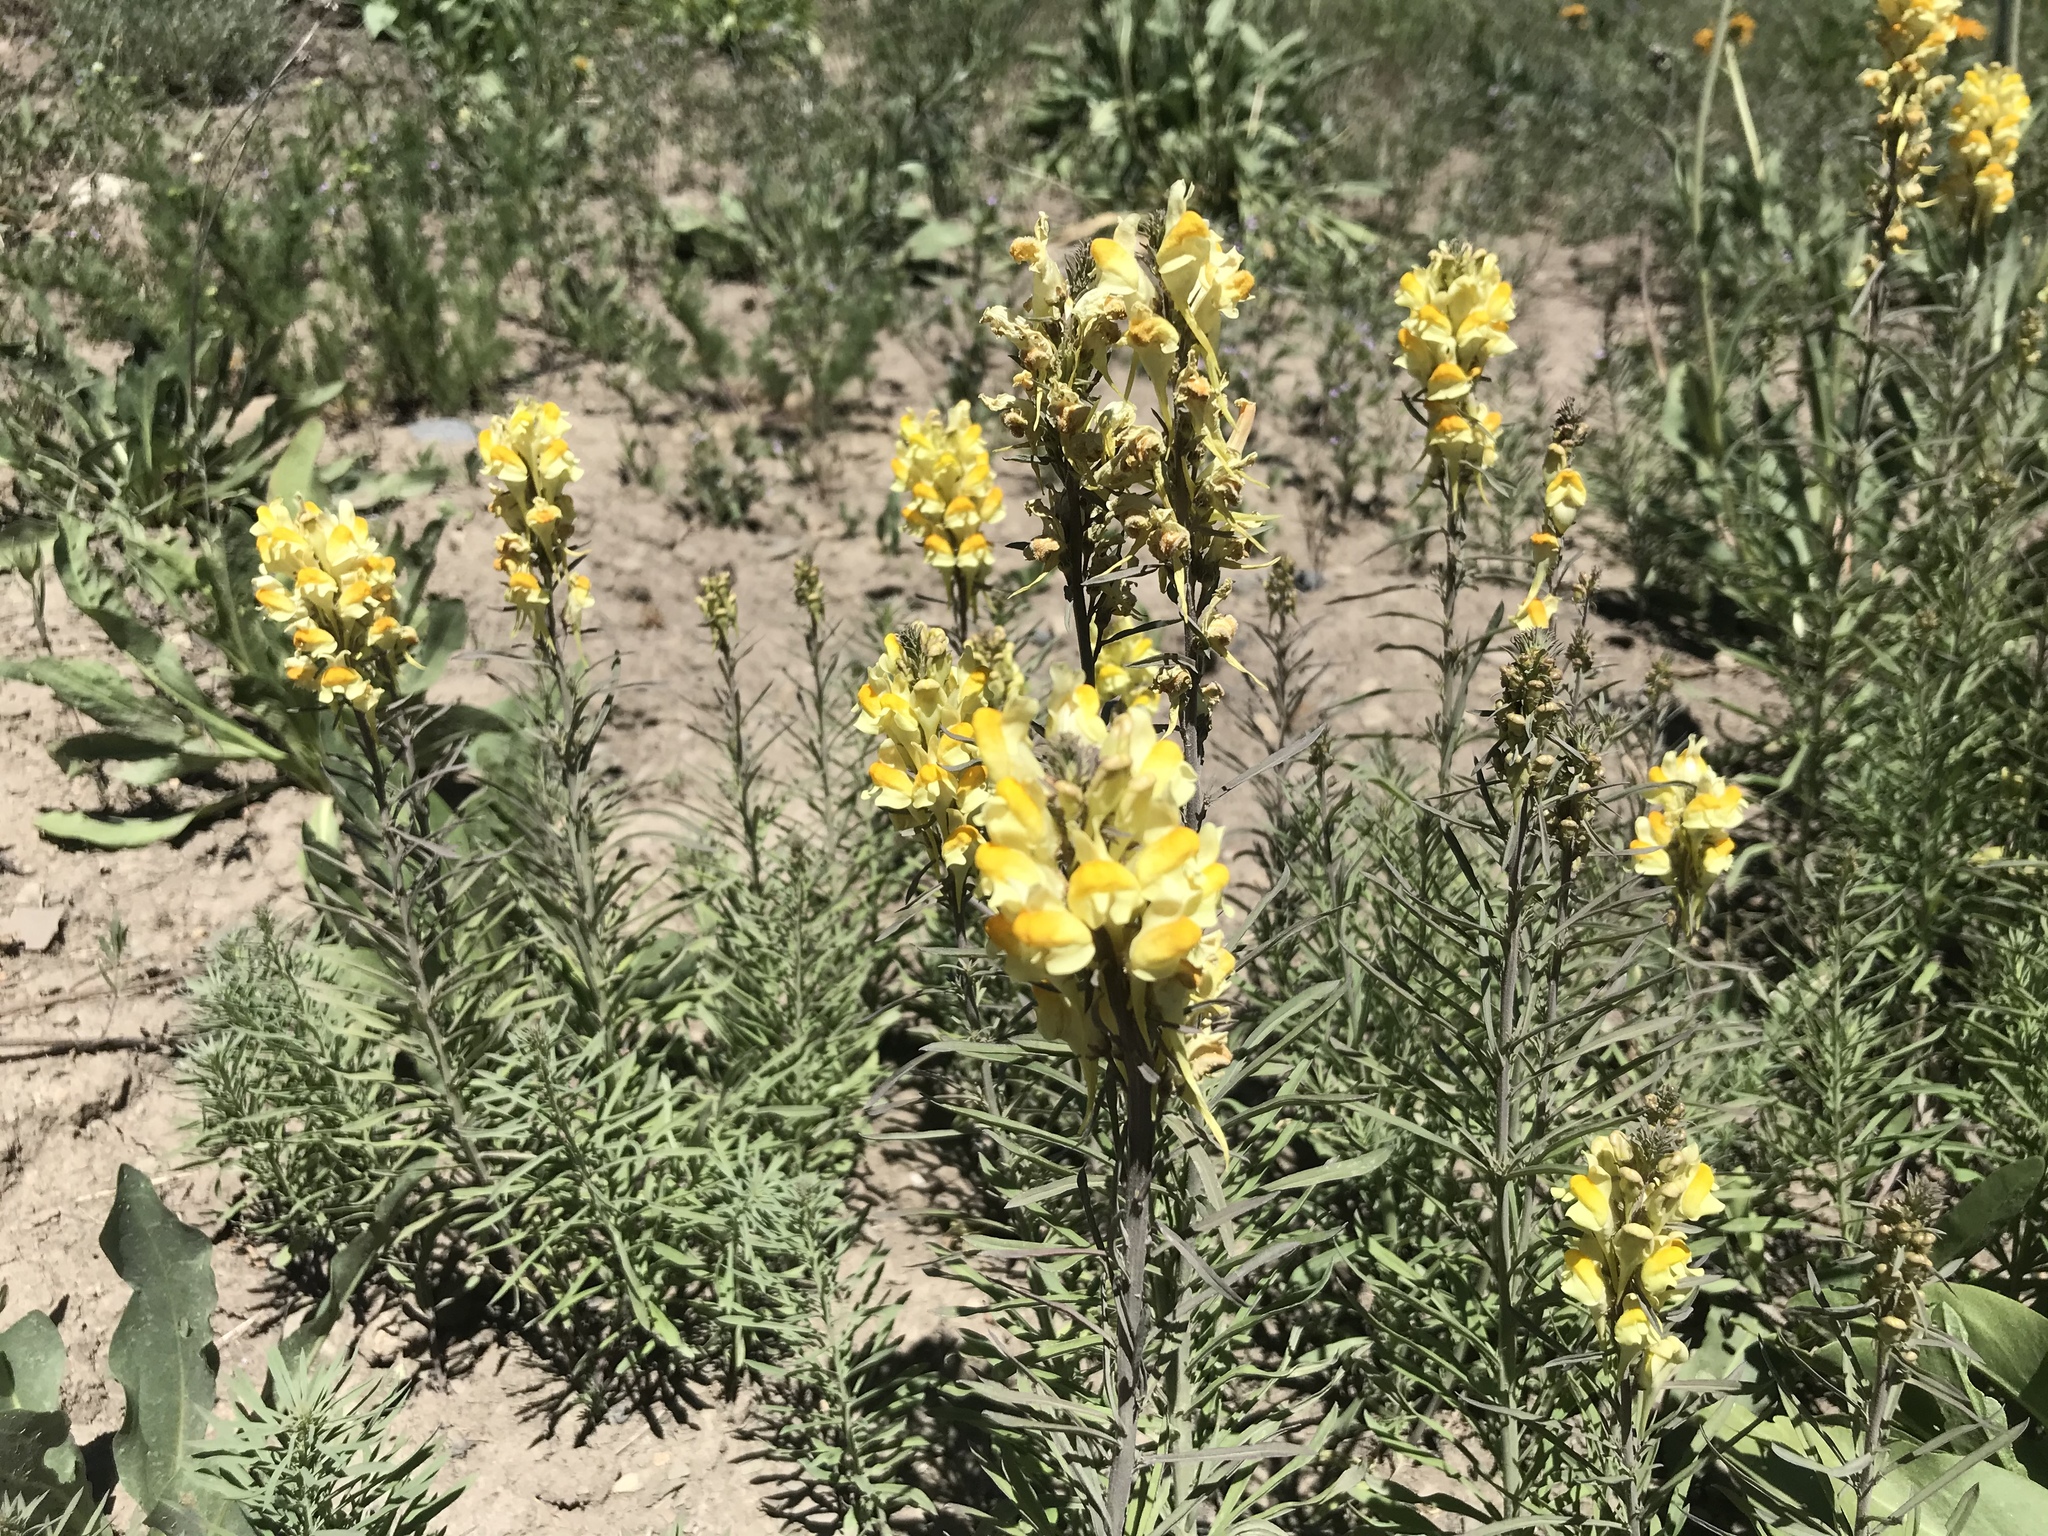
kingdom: Plantae
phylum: Tracheophyta
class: Magnoliopsida
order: Lamiales
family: Plantaginaceae
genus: Linaria
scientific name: Linaria vulgaris
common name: Butter and eggs
